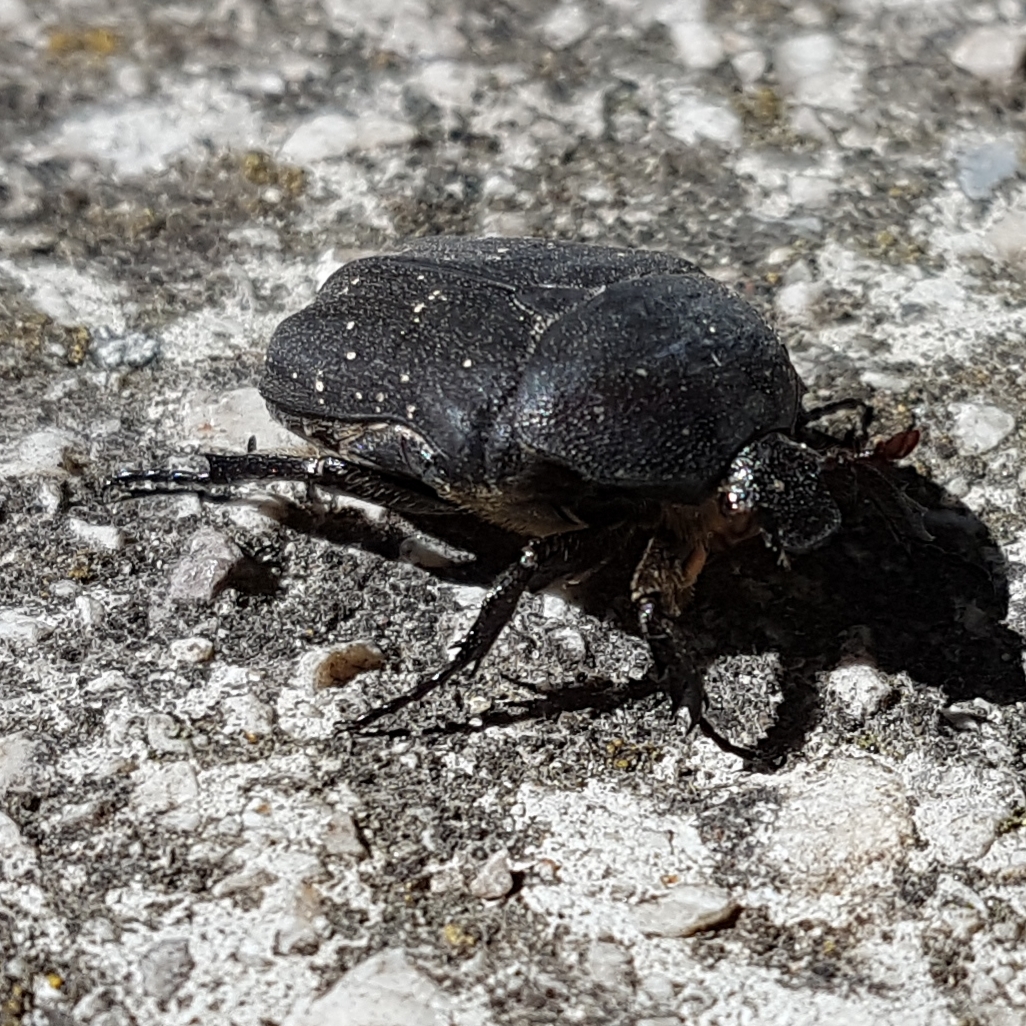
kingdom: Animalia
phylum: Arthropoda
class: Insecta
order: Coleoptera
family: Scarabaeidae
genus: Protaetia
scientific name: Protaetia morio
